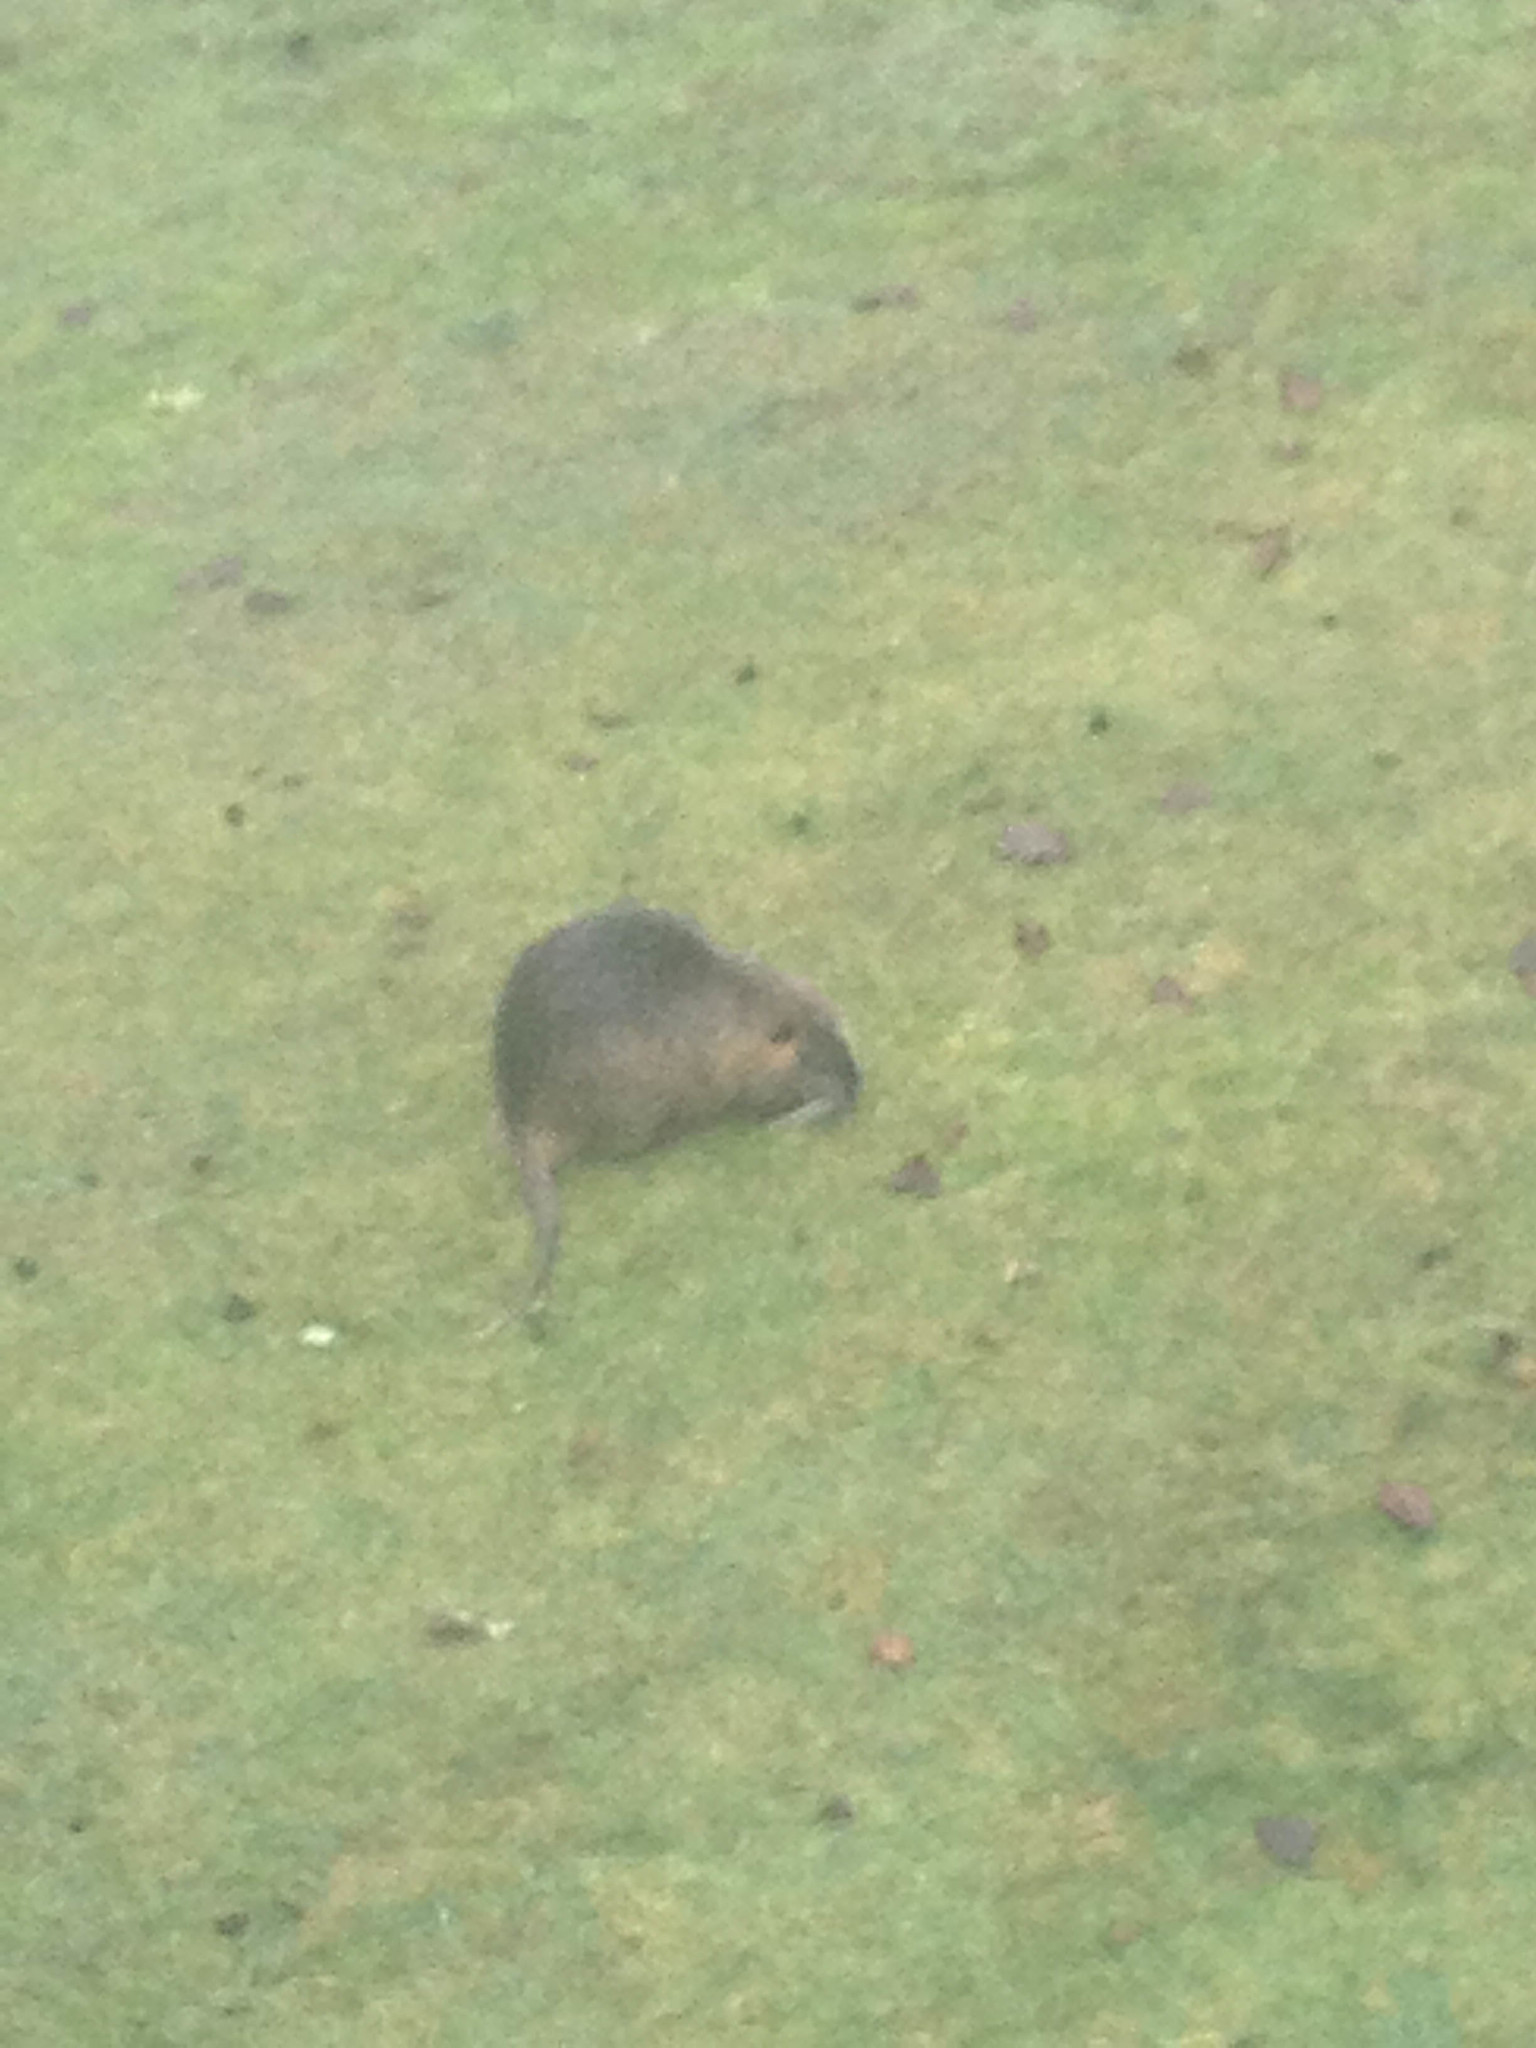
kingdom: Animalia
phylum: Chordata
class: Mammalia
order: Rodentia
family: Myocastoridae
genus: Myocastor
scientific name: Myocastor coypus
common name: Coypu
